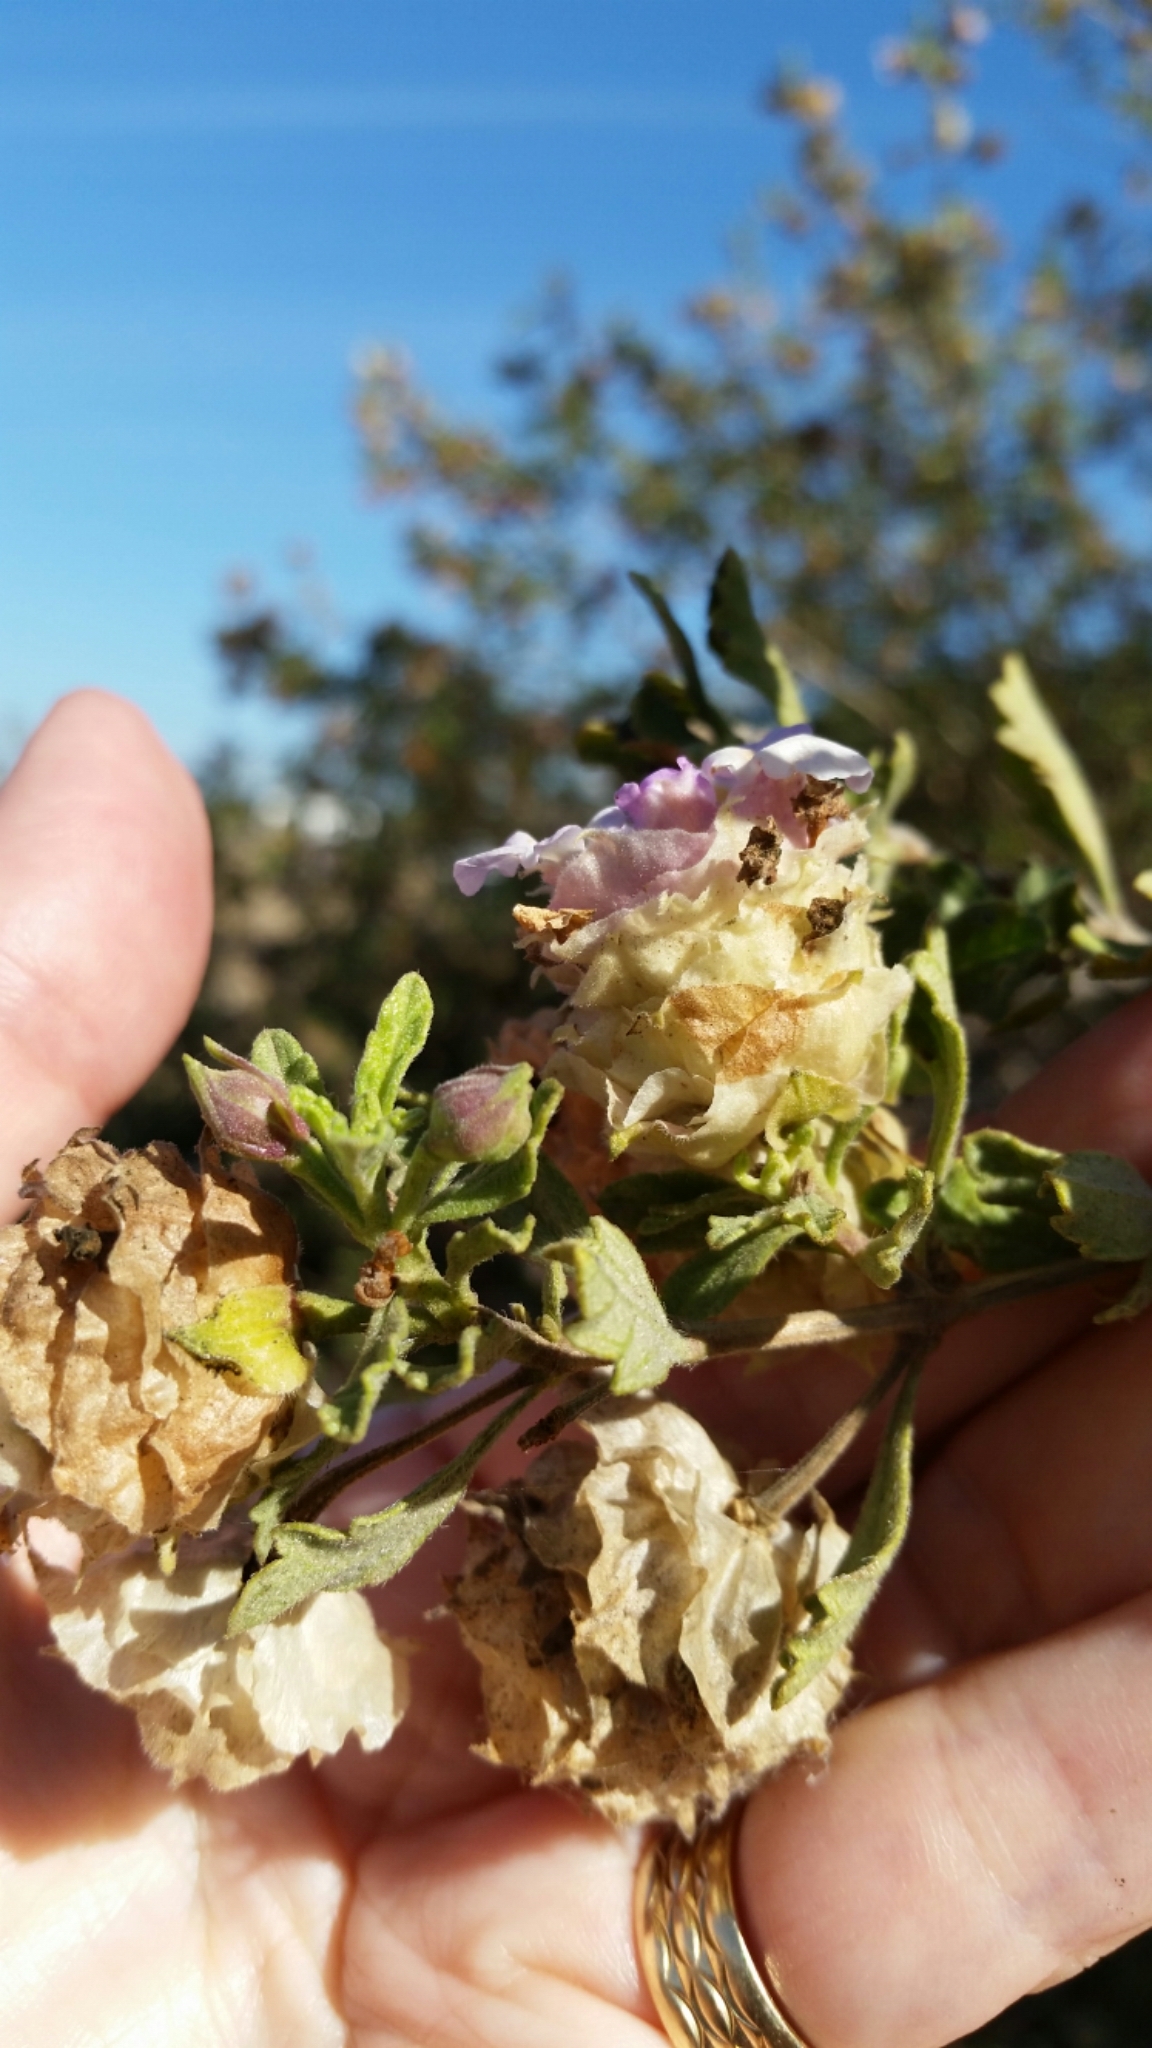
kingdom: Plantae
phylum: Tracheophyta
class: Magnoliopsida
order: Lamiales
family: Verbenaceae
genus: Lippia
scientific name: Lippia formosa
